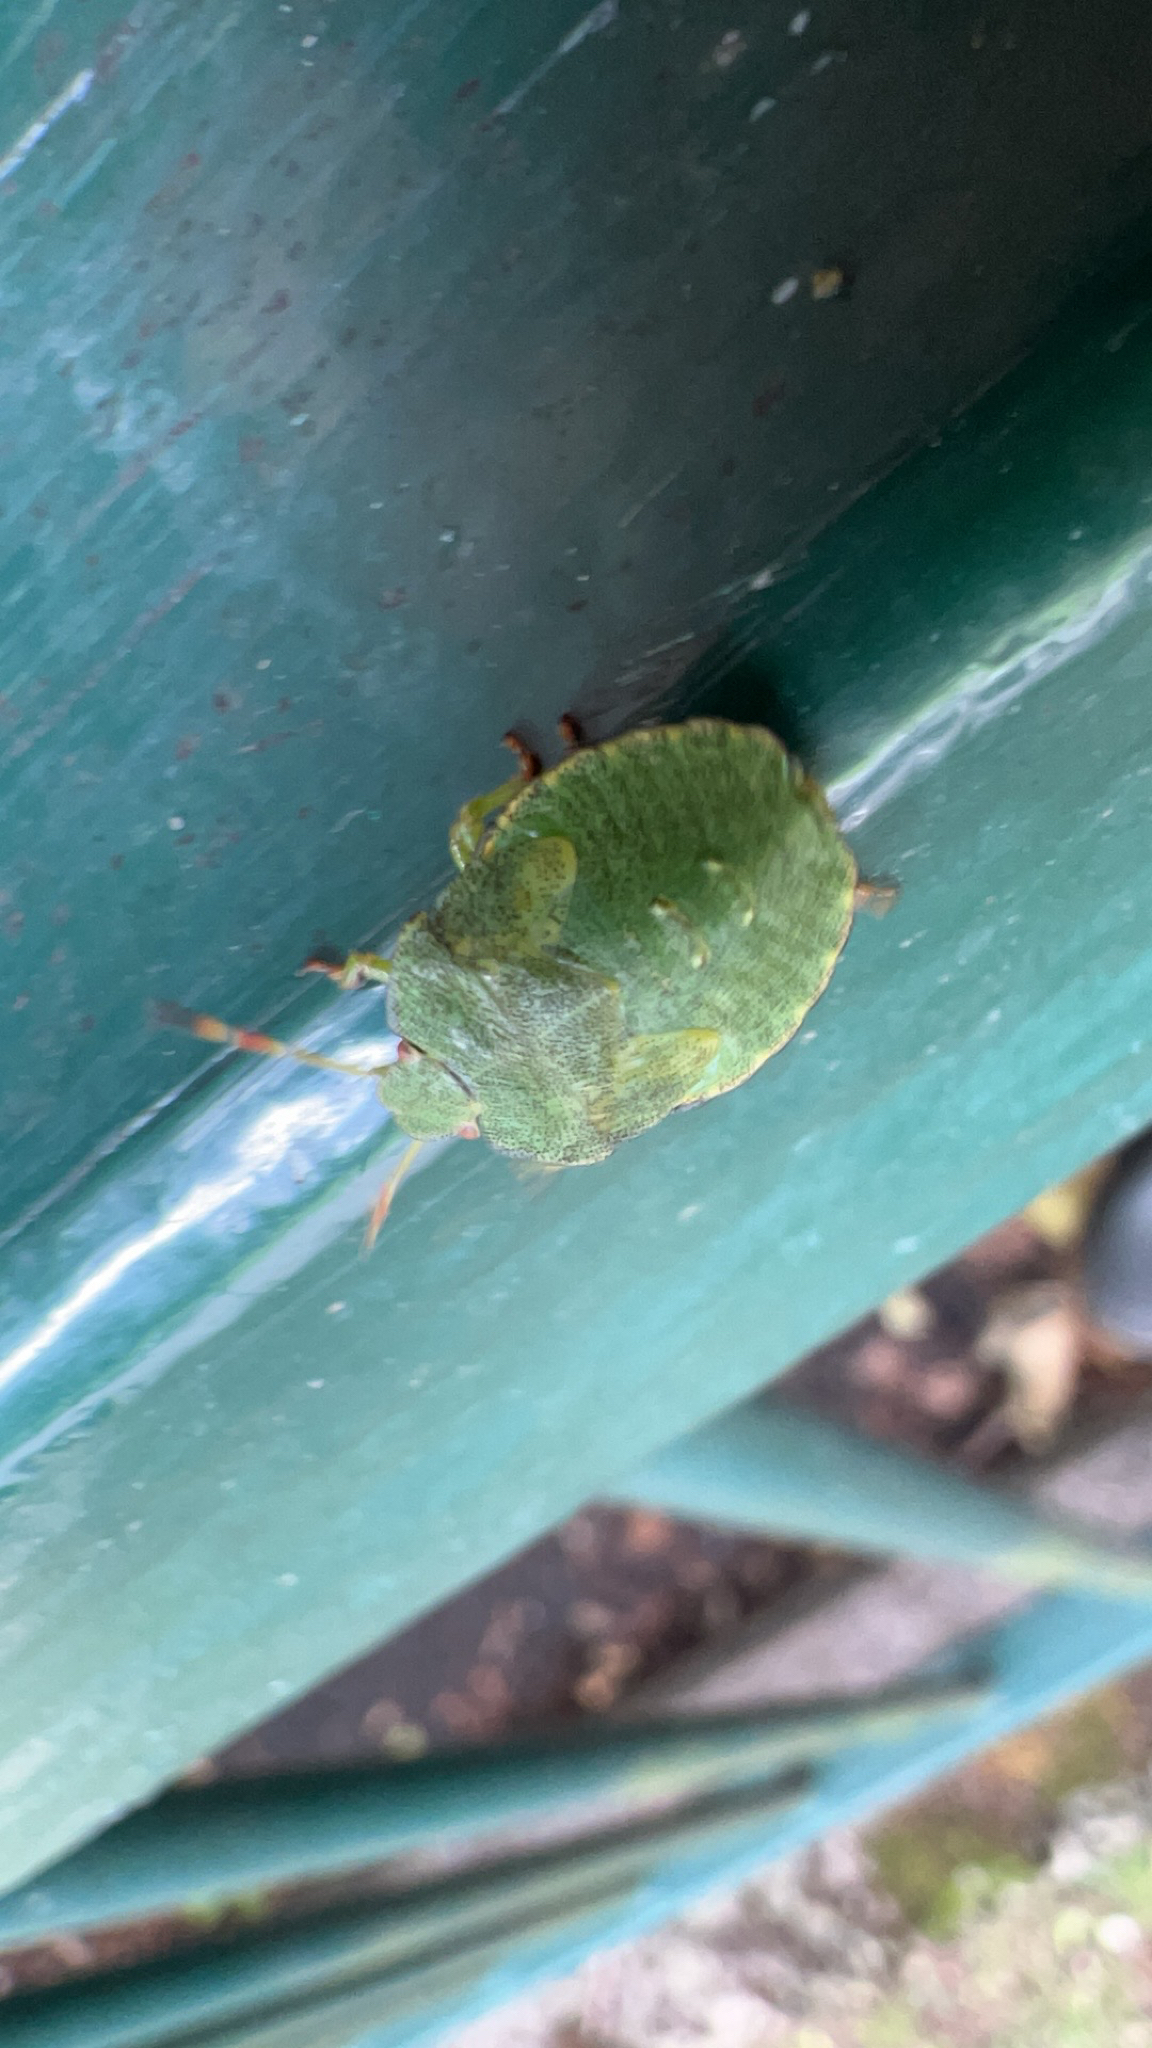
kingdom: Animalia
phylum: Arthropoda
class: Insecta
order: Hemiptera
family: Pentatomidae
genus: Palomena
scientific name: Palomena prasina
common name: Green shieldbug
